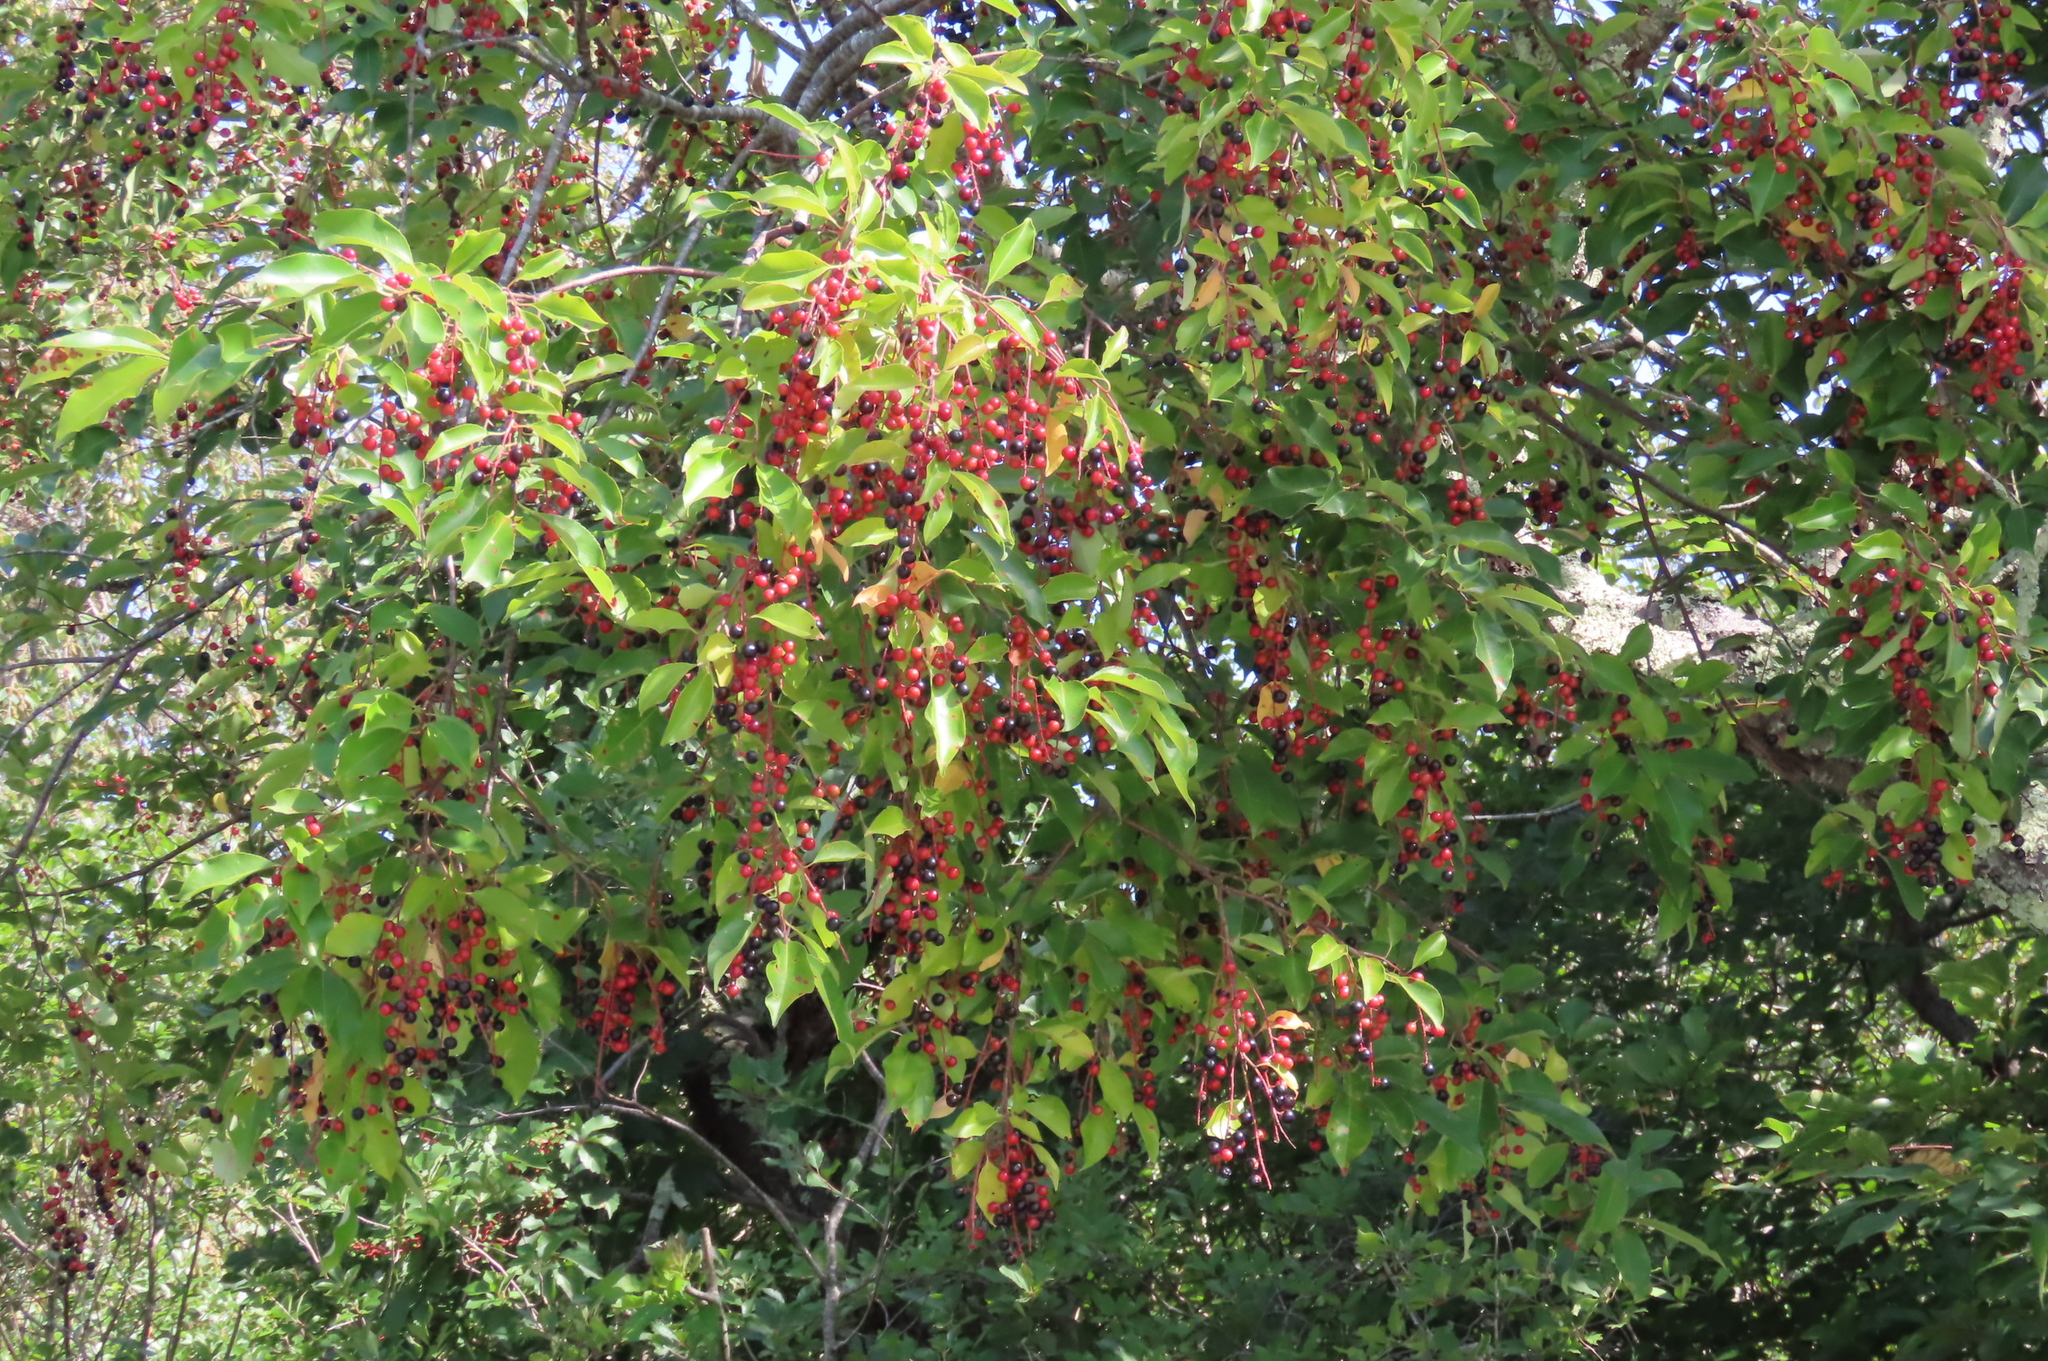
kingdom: Plantae
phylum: Tracheophyta
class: Magnoliopsida
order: Rosales
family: Rosaceae
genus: Prunus
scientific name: Prunus serotina
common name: Black cherry
